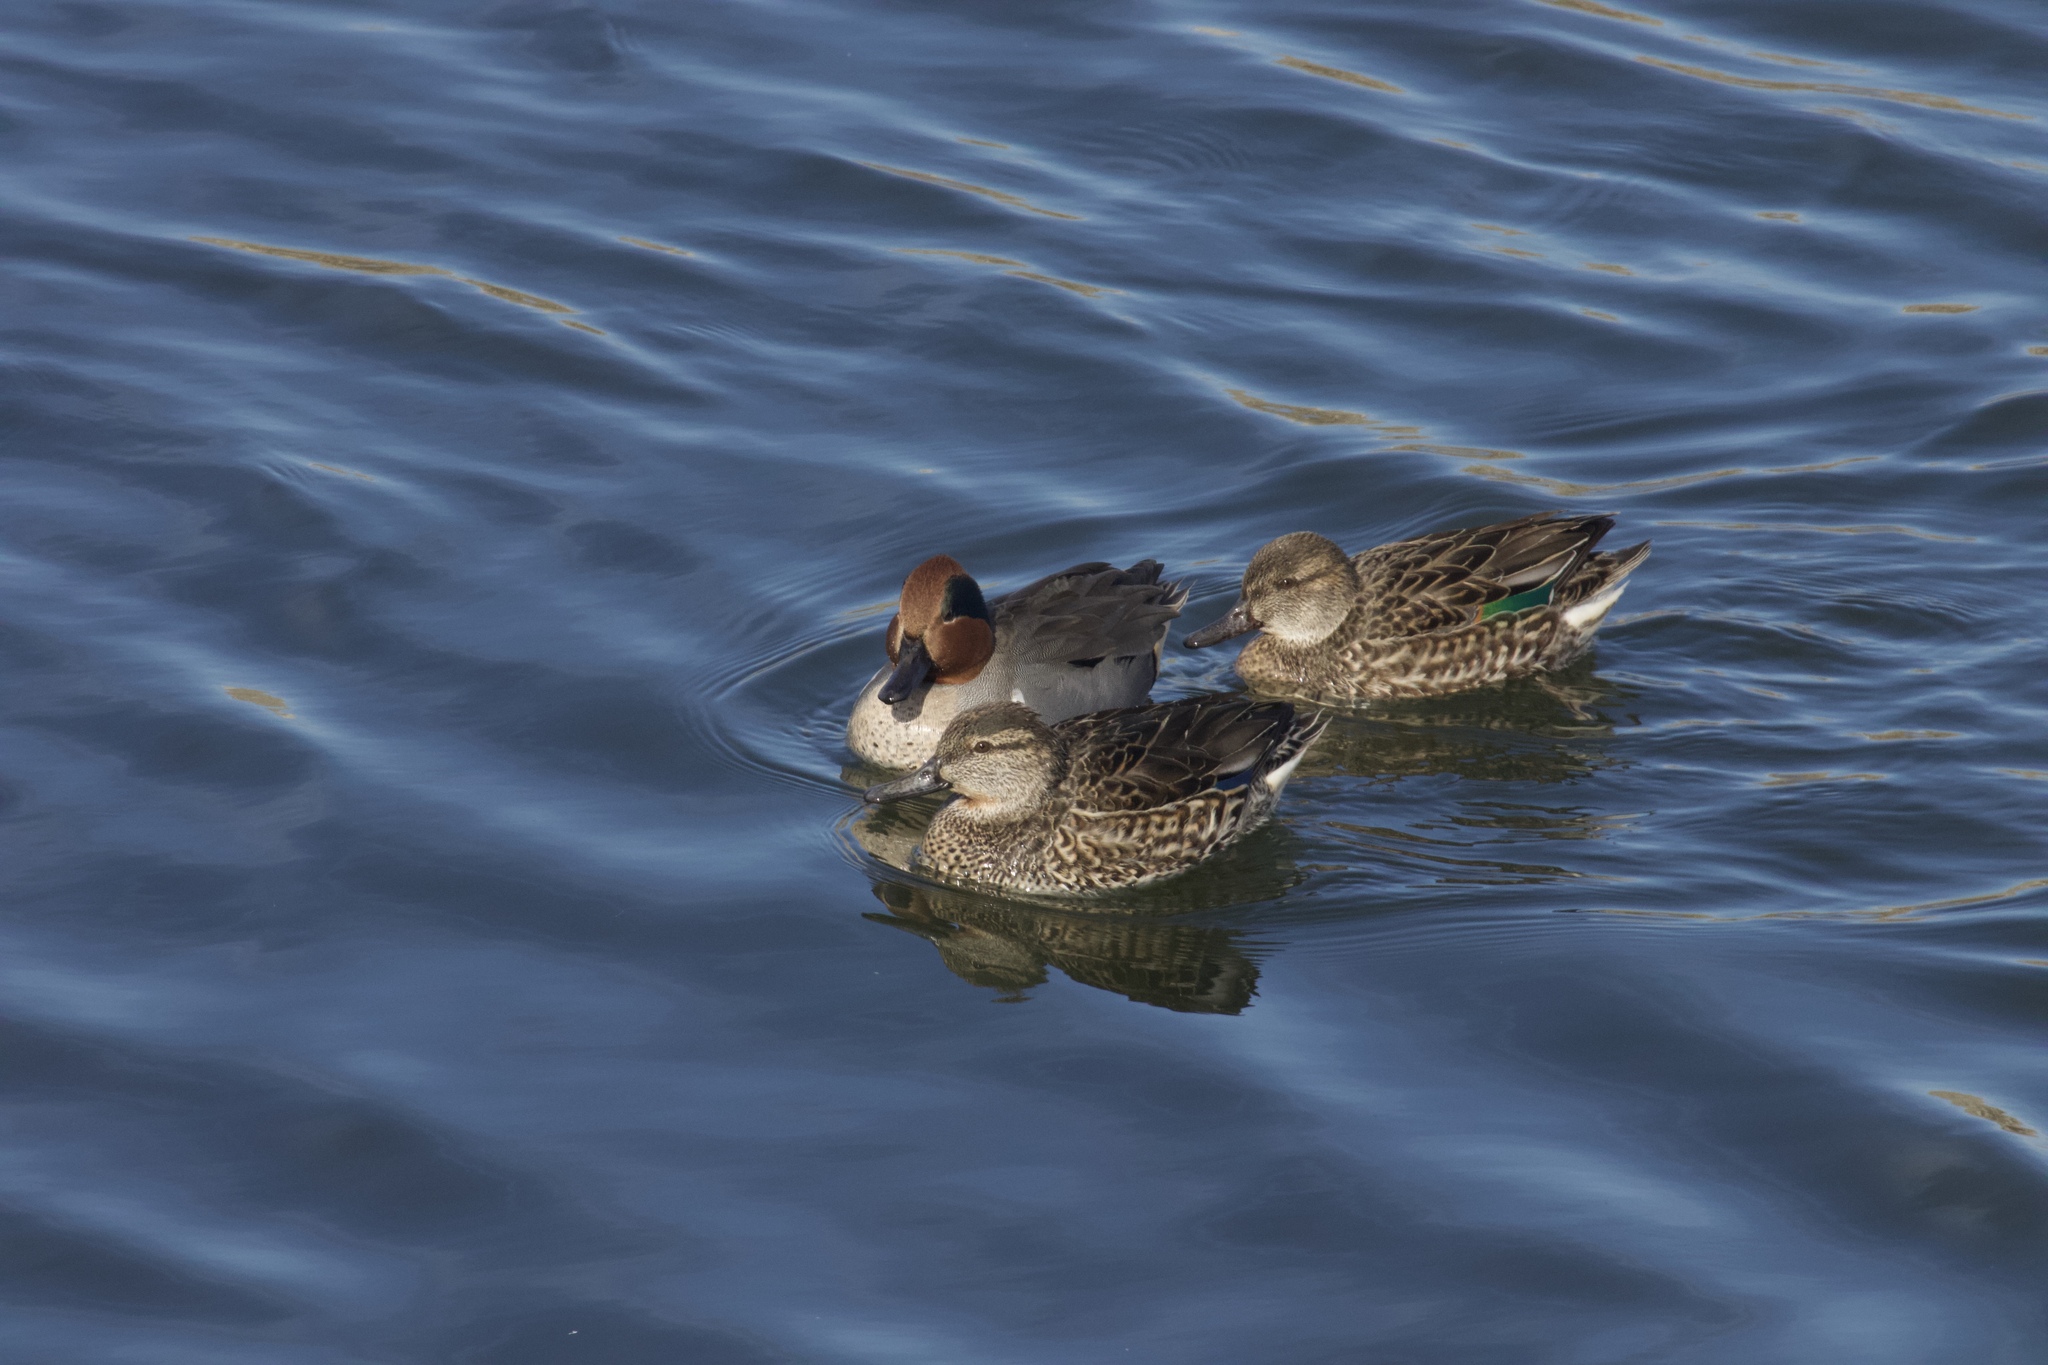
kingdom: Animalia
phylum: Chordata
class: Aves
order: Anseriformes
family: Anatidae
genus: Anas
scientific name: Anas crecca
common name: Eurasian teal
